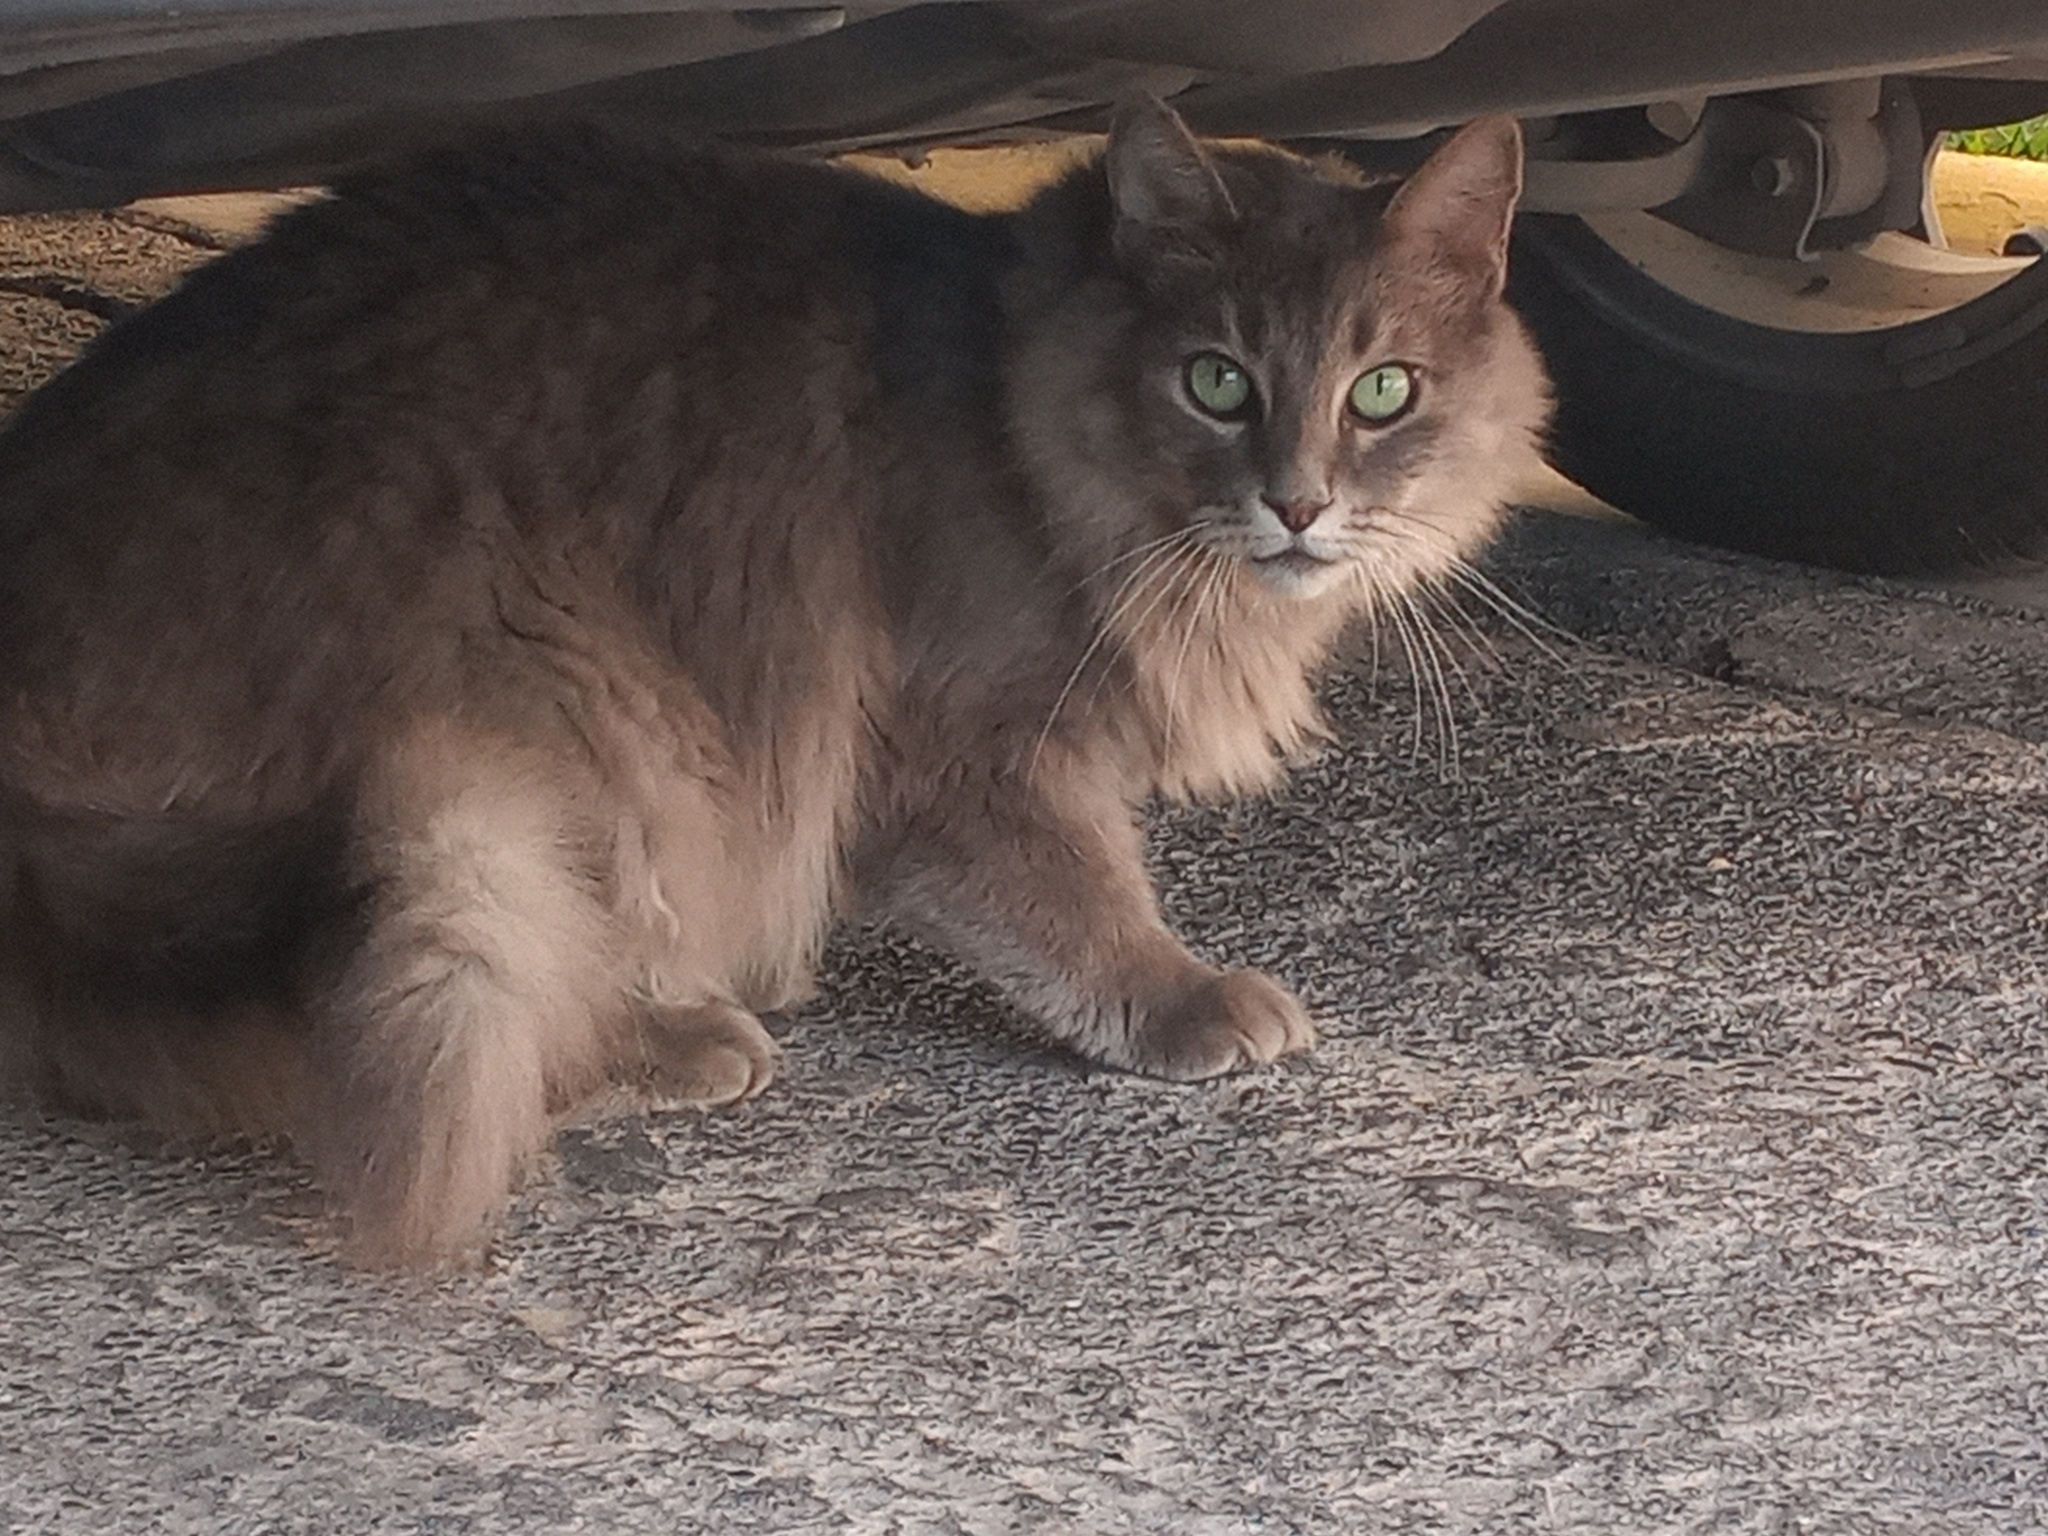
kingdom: Animalia
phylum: Chordata
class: Mammalia
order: Carnivora
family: Felidae
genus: Felis
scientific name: Felis catus
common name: Domestic cat
